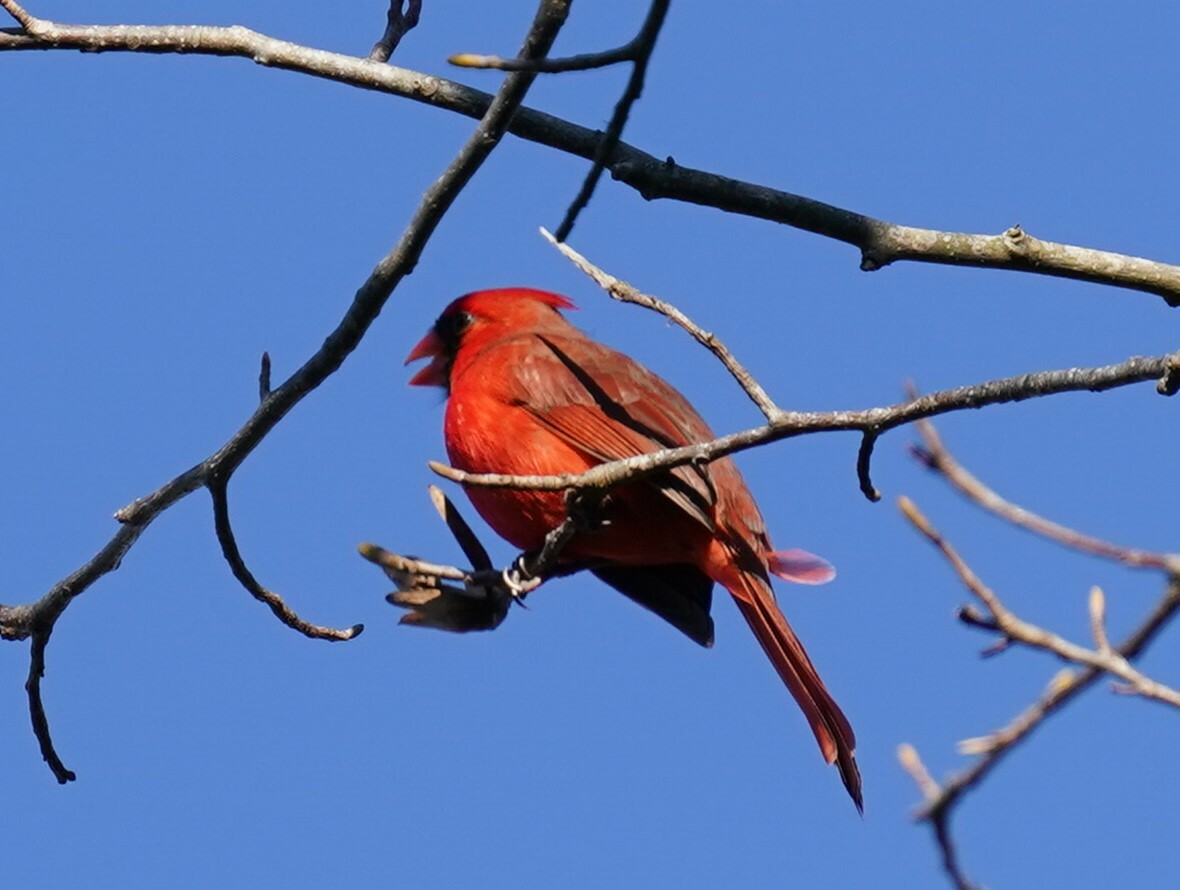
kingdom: Animalia
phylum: Chordata
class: Aves
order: Passeriformes
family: Cardinalidae
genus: Cardinalis
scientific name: Cardinalis cardinalis
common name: Northern cardinal
